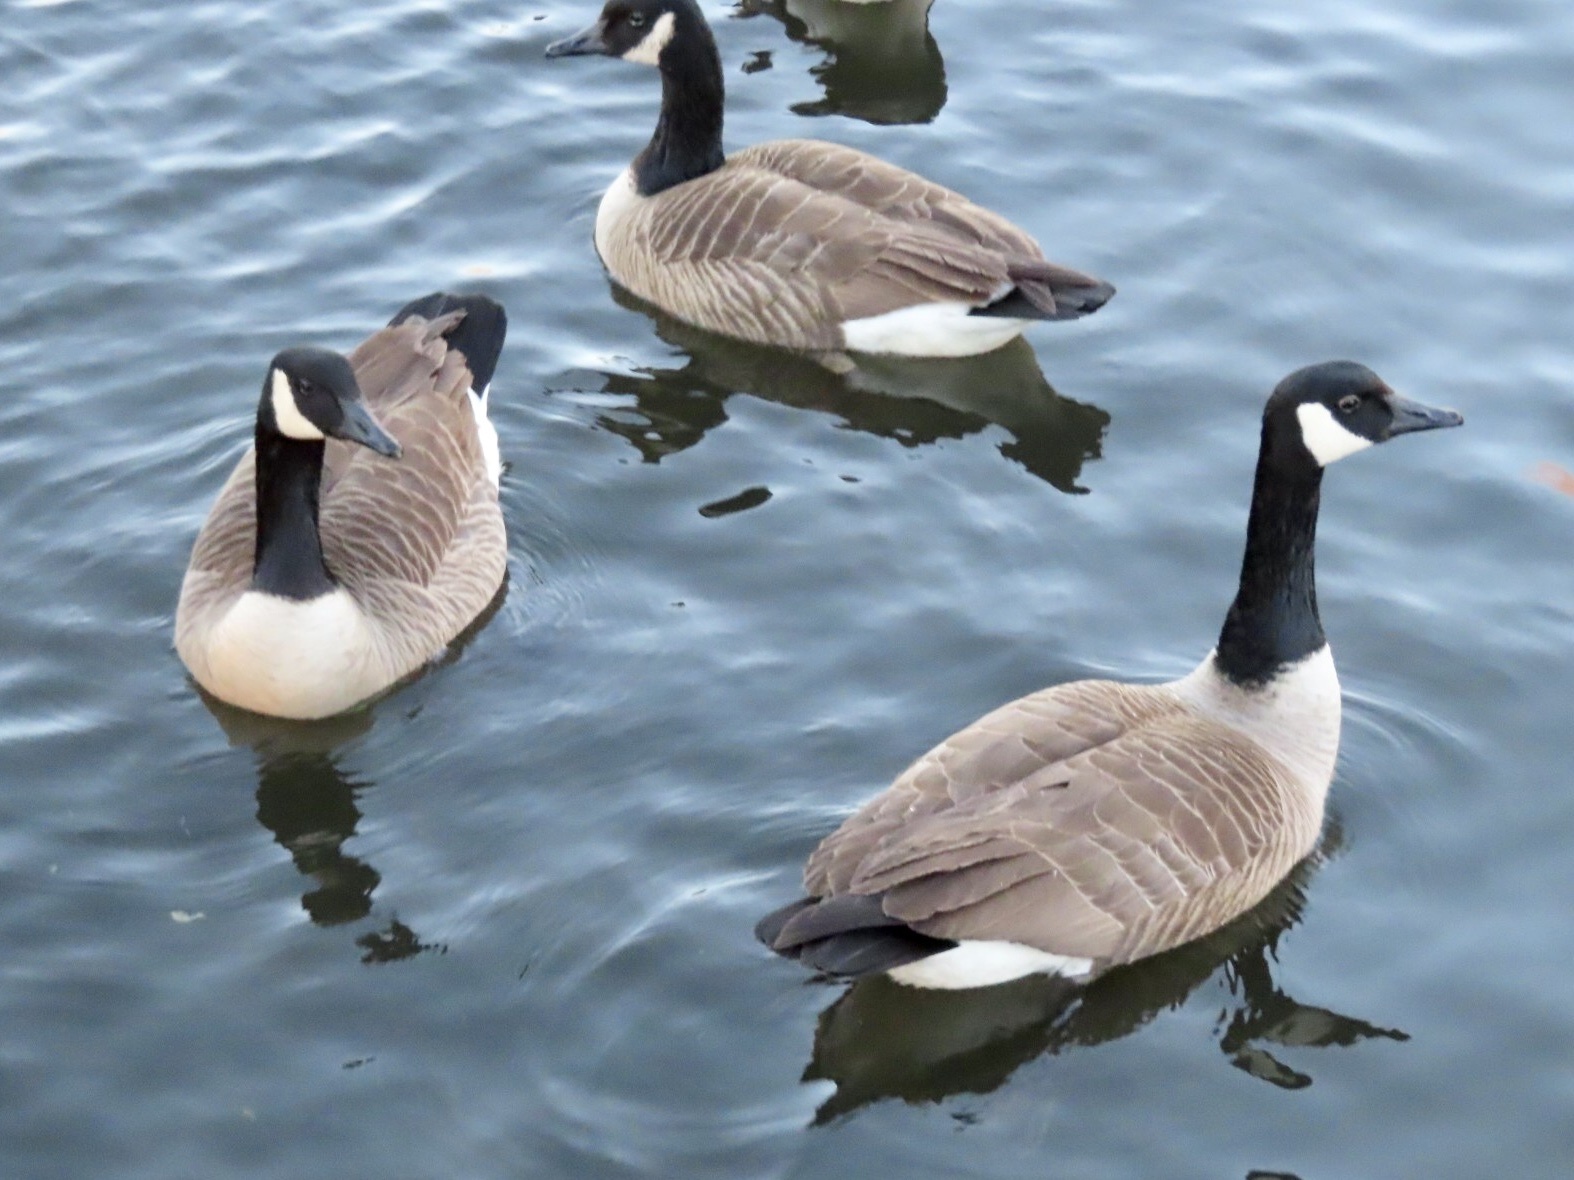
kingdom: Animalia
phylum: Chordata
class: Aves
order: Anseriformes
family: Anatidae
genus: Branta
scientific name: Branta canadensis
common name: Canada goose
